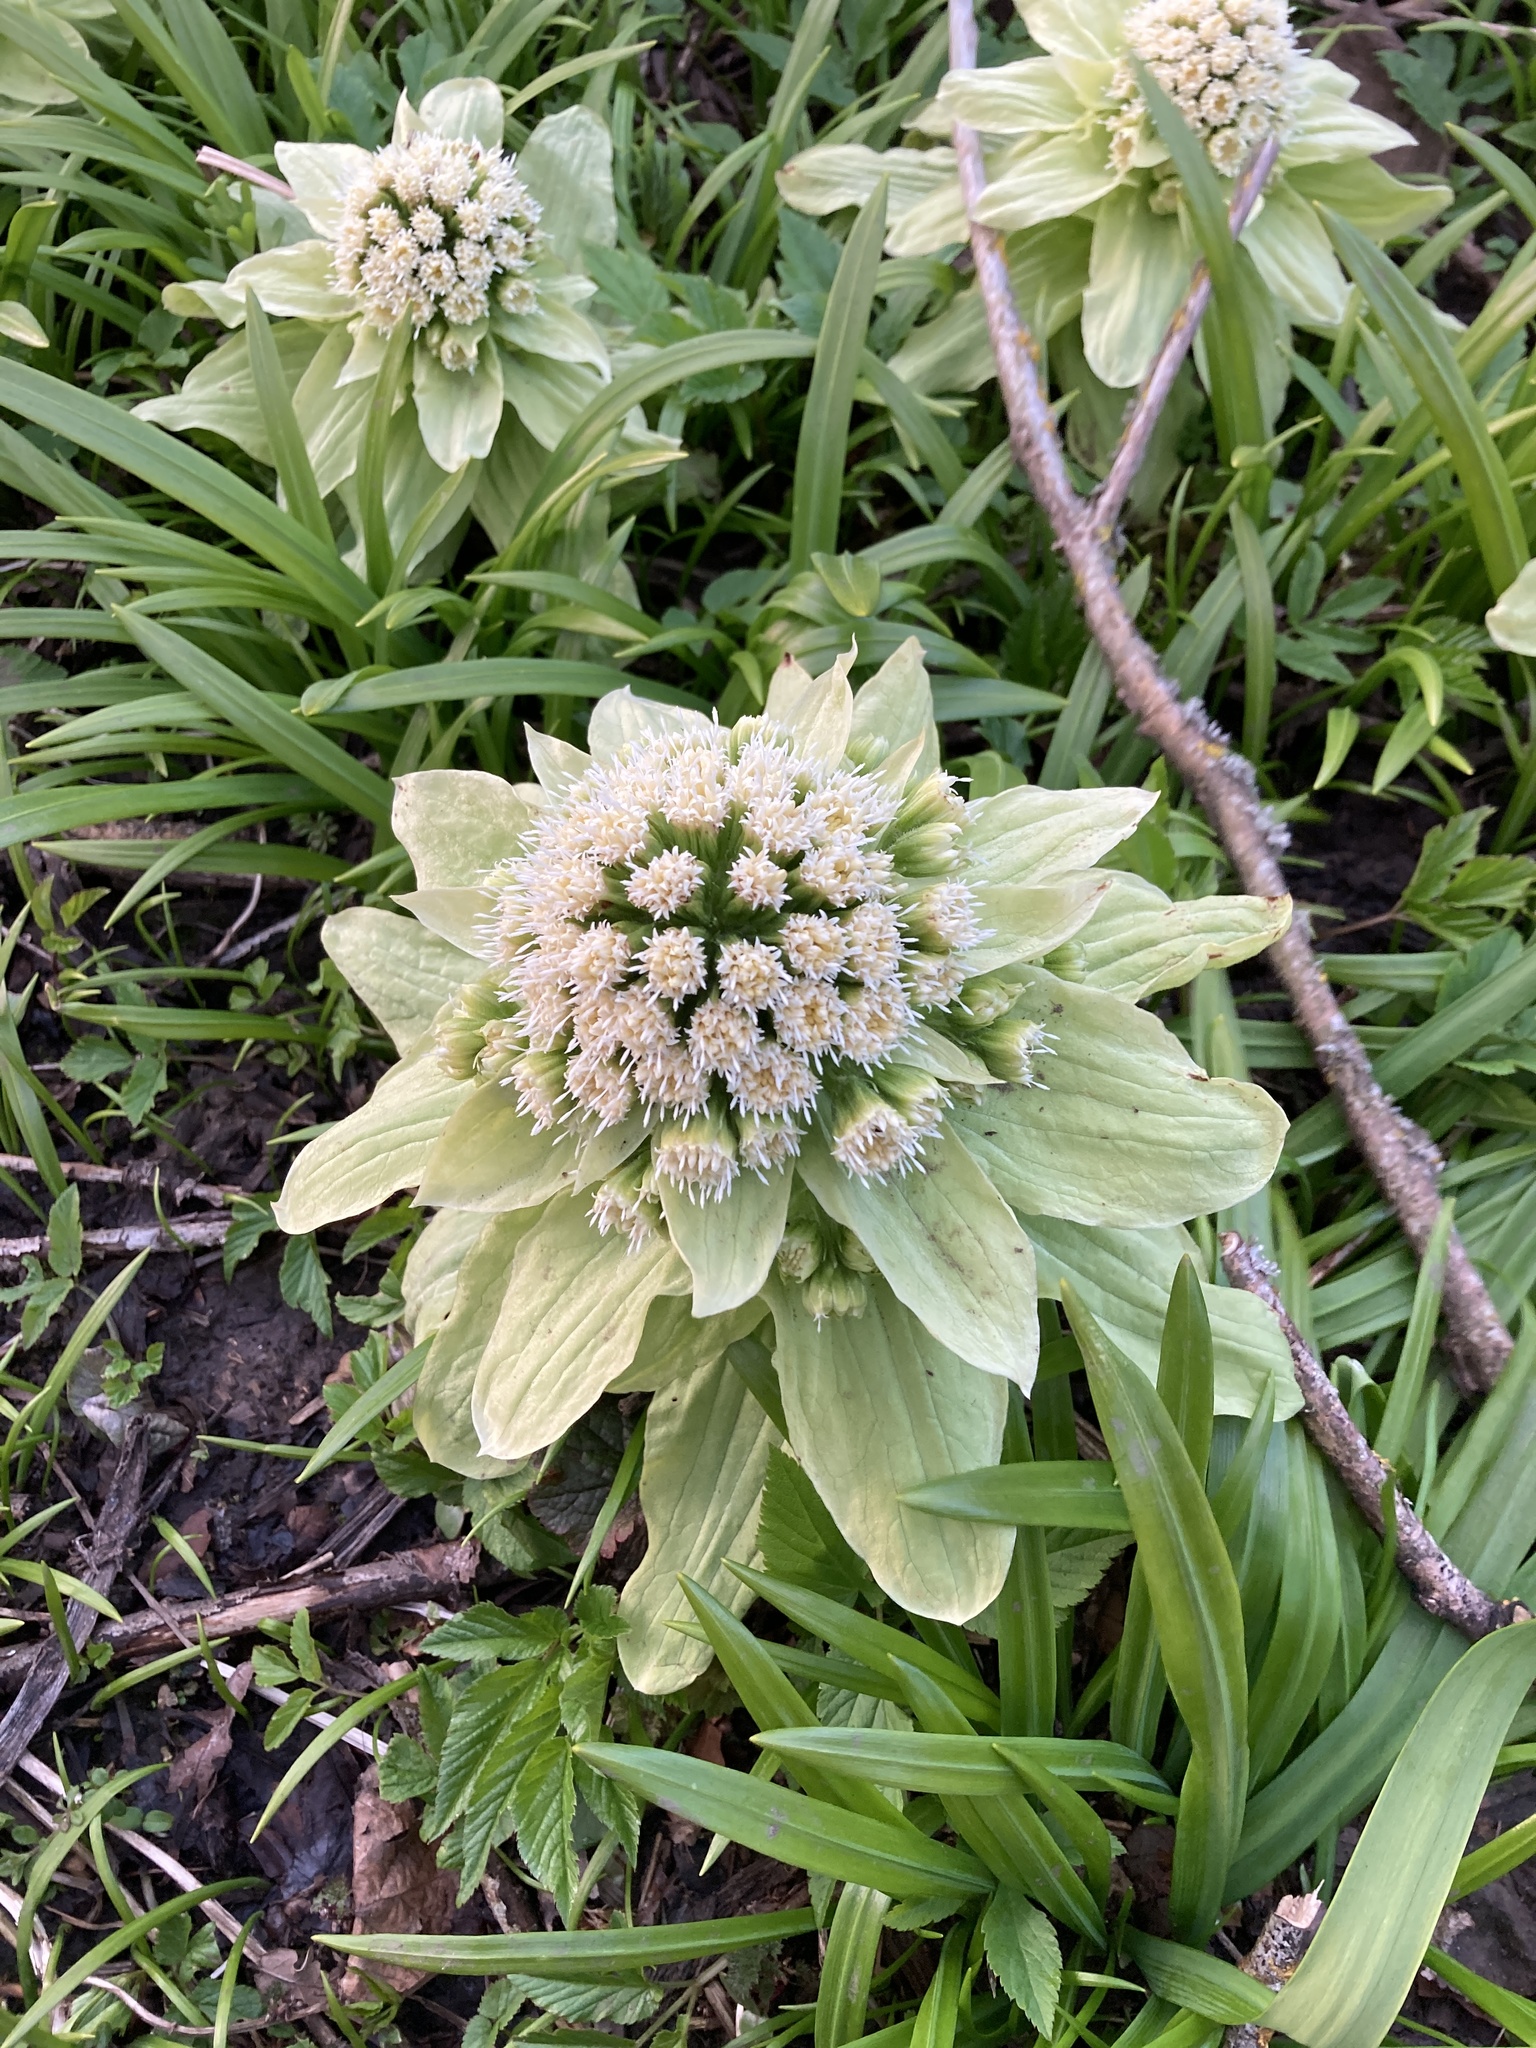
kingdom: Plantae
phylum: Tracheophyta
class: Magnoliopsida
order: Asterales
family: Asteraceae
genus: Petasites
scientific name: Petasites japonicus
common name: Giant butterbur
